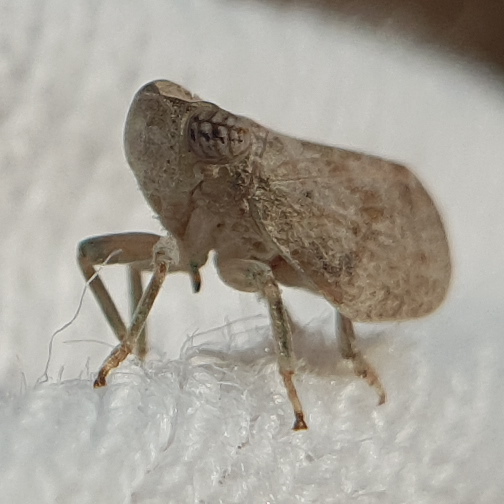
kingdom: Animalia
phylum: Arthropoda
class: Insecta
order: Hemiptera
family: Issidae
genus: Agalmatium
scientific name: Agalmatium bilobum
